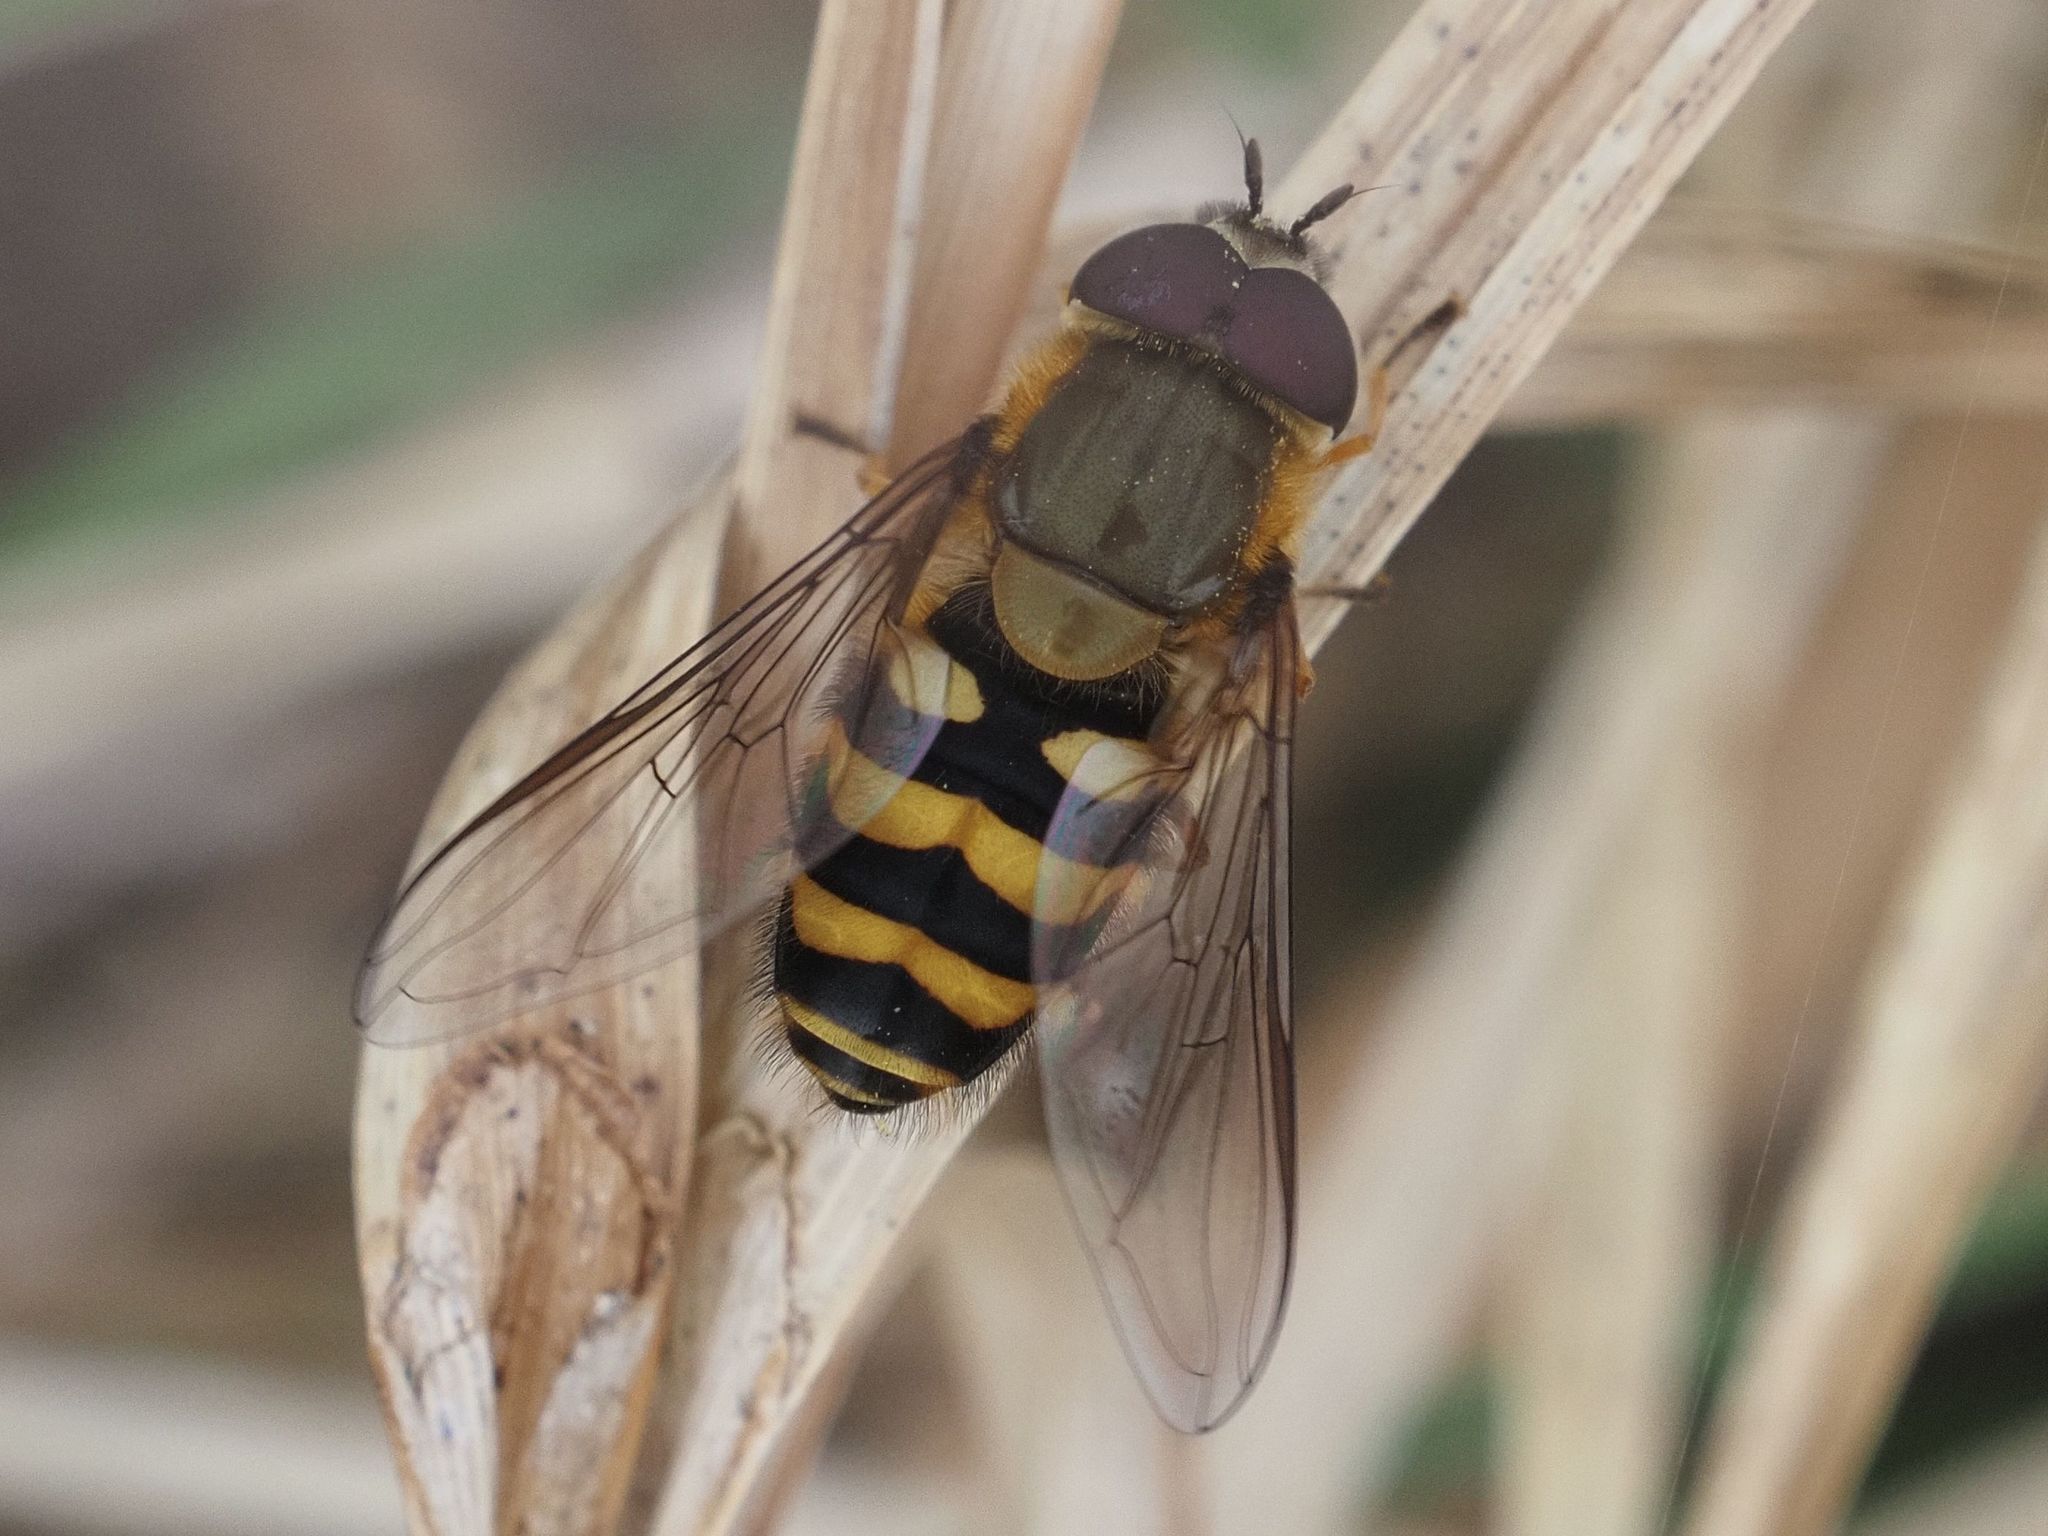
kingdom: Animalia
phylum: Arthropoda
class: Insecta
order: Diptera
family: Syrphidae
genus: Syrphus
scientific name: Syrphus torvus
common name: Hairy-eyed flower fly
